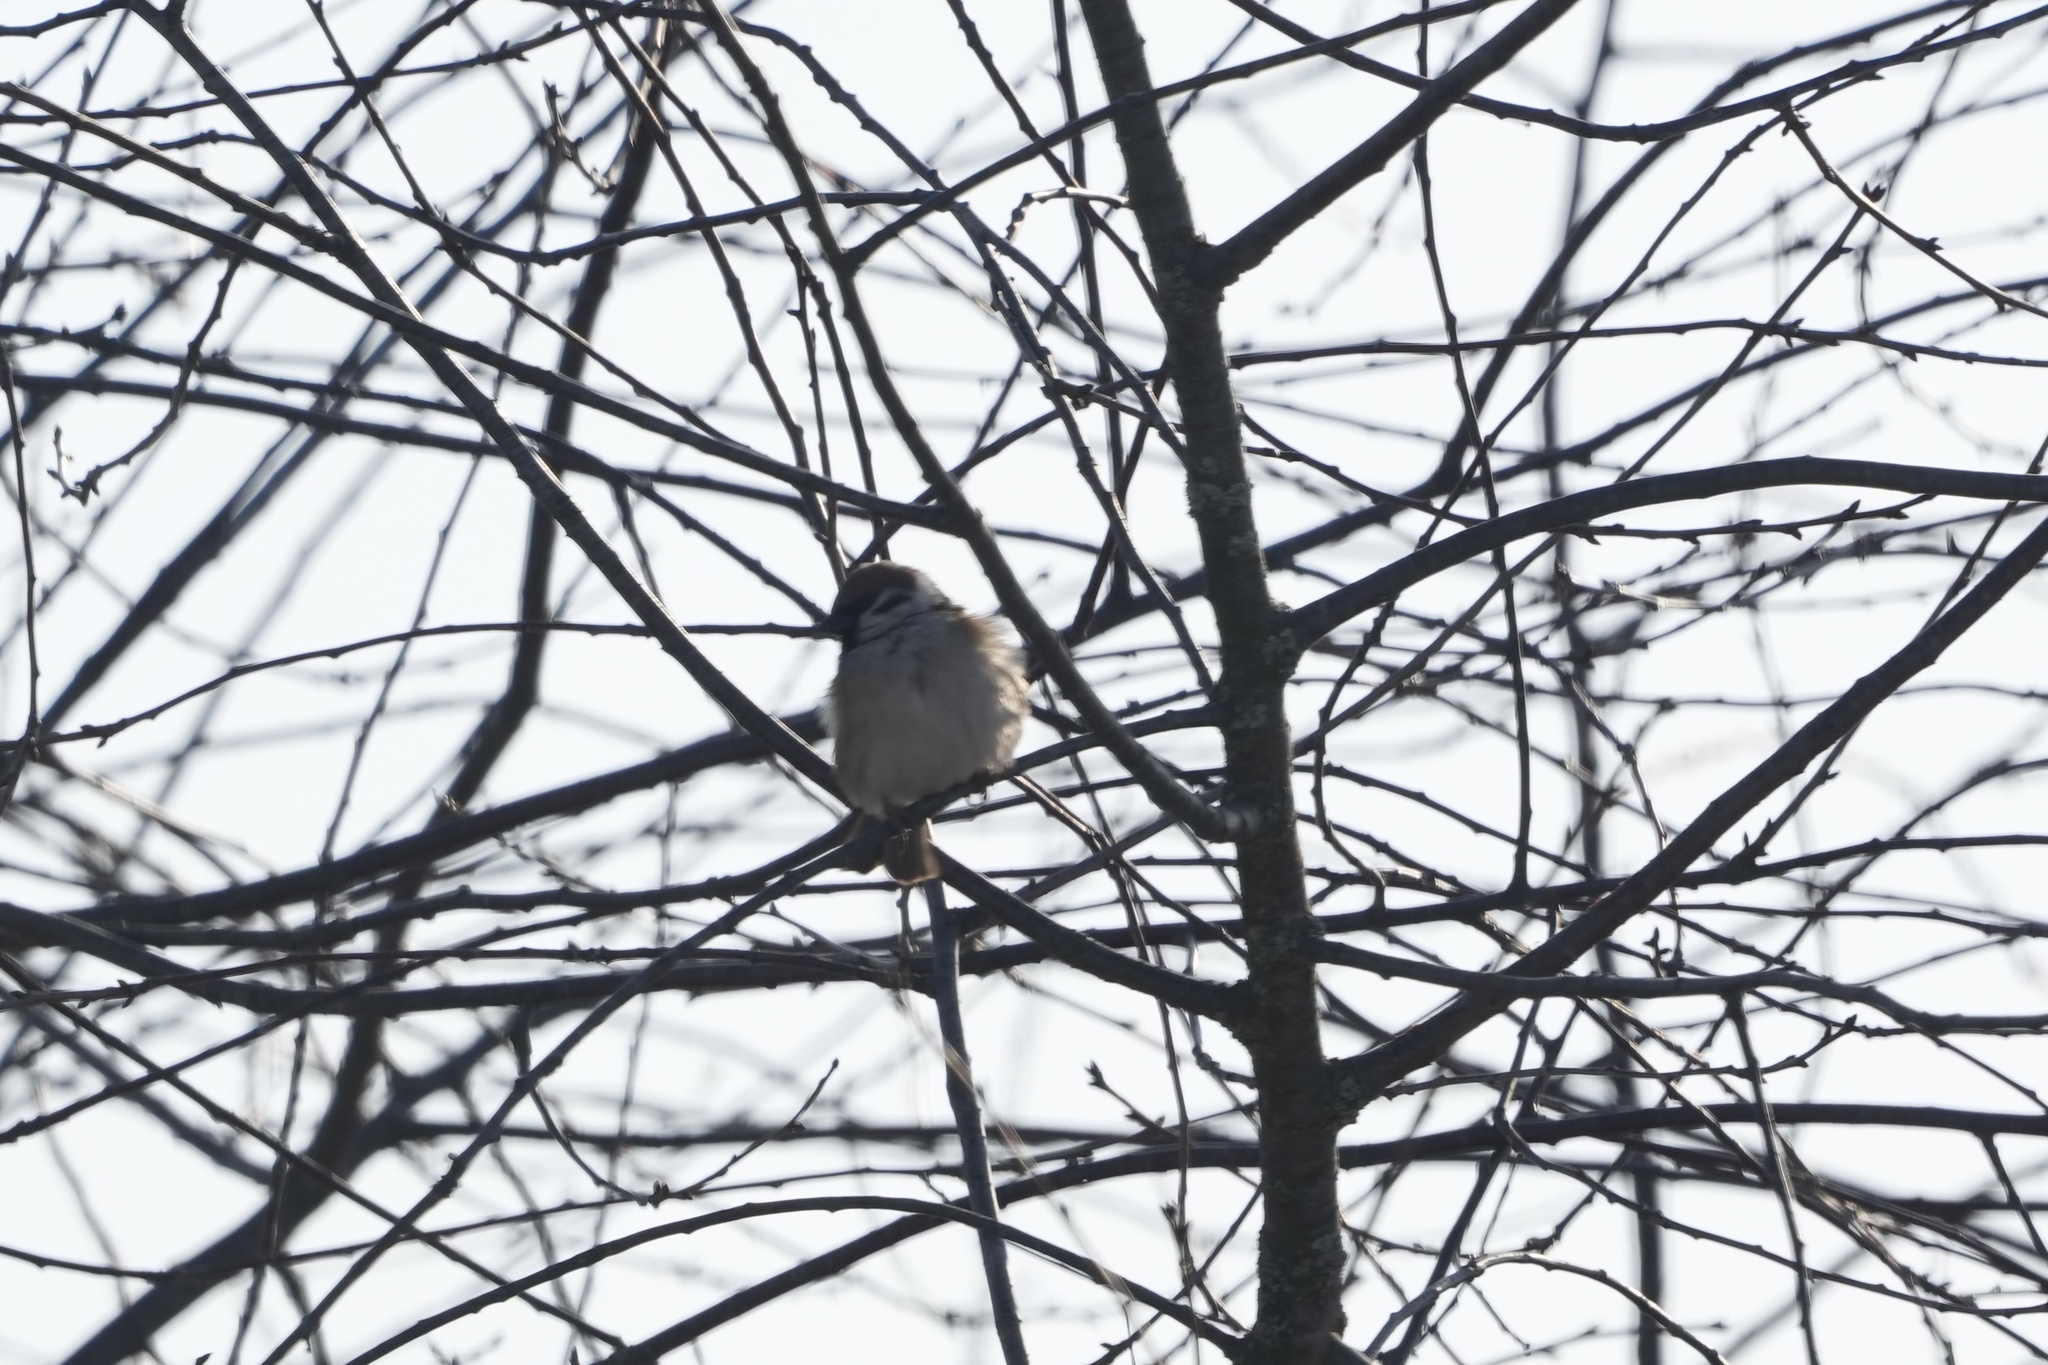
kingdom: Animalia
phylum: Chordata
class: Aves
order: Passeriformes
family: Passeridae
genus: Passer
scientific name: Passer montanus
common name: Eurasian tree sparrow
